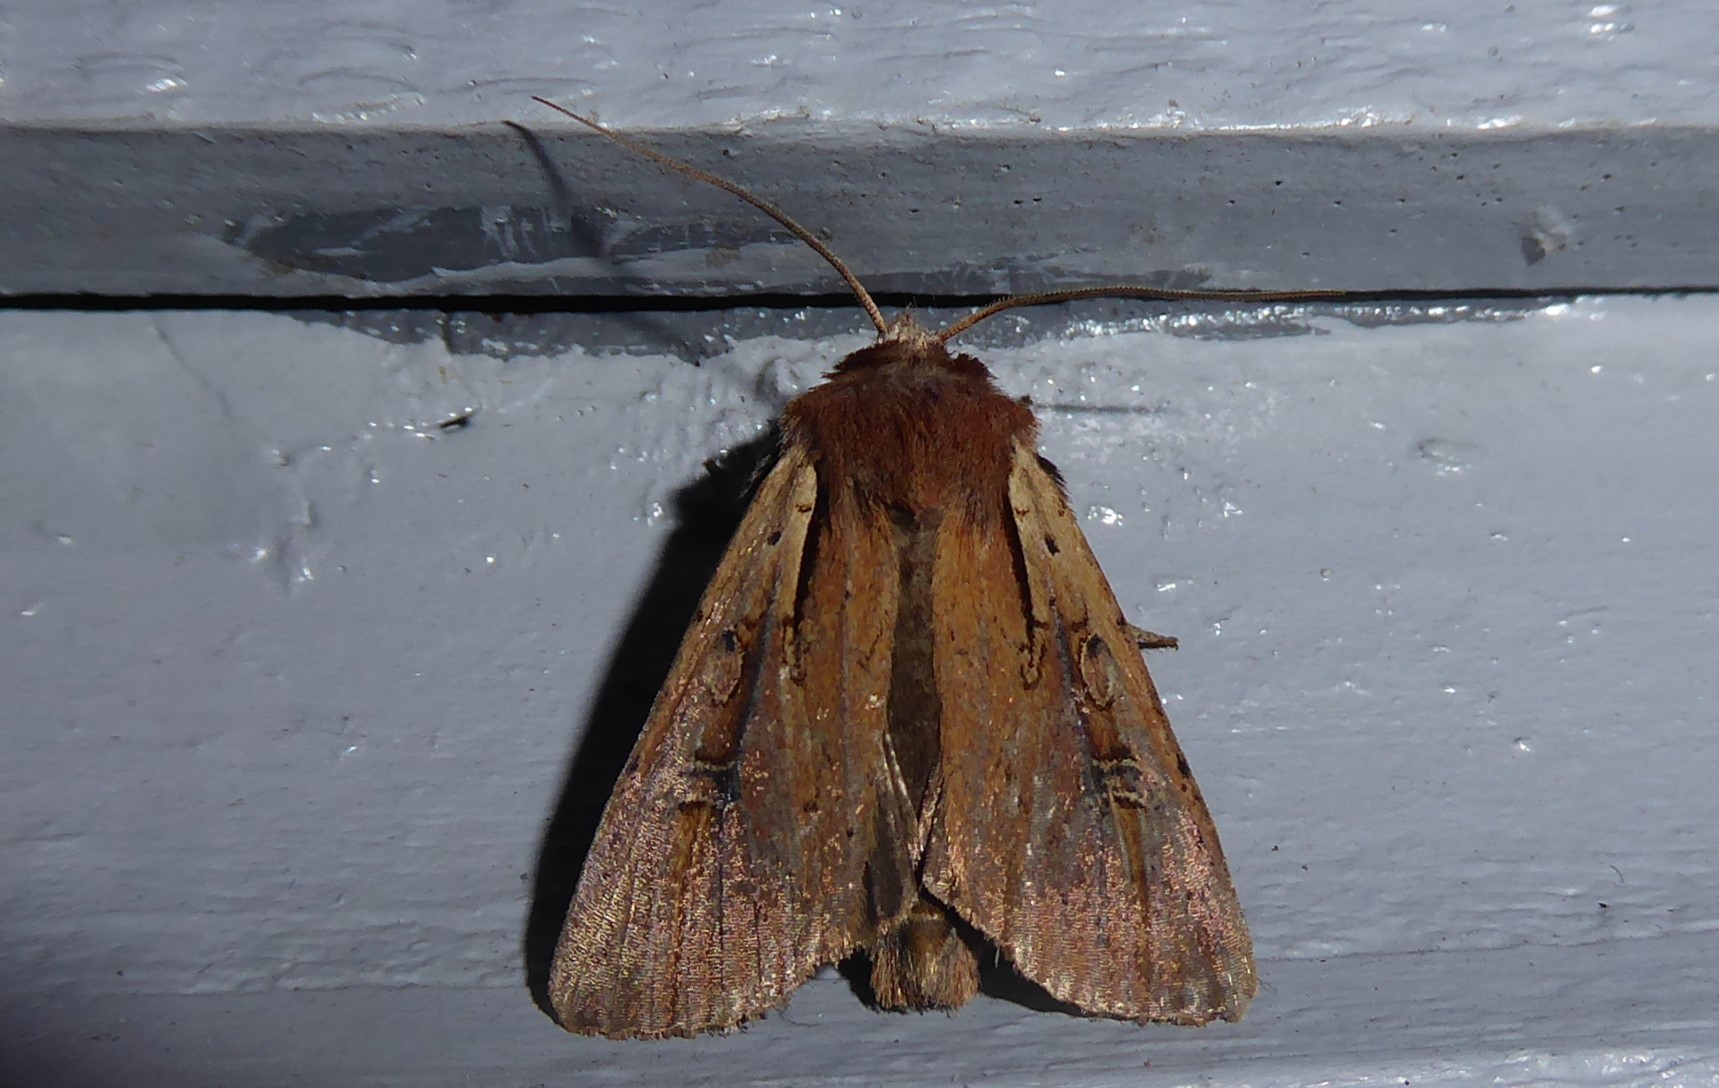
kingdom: Animalia
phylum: Arthropoda
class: Insecta
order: Lepidoptera
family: Noctuidae
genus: Ichneutica
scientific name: Ichneutica atristriga
